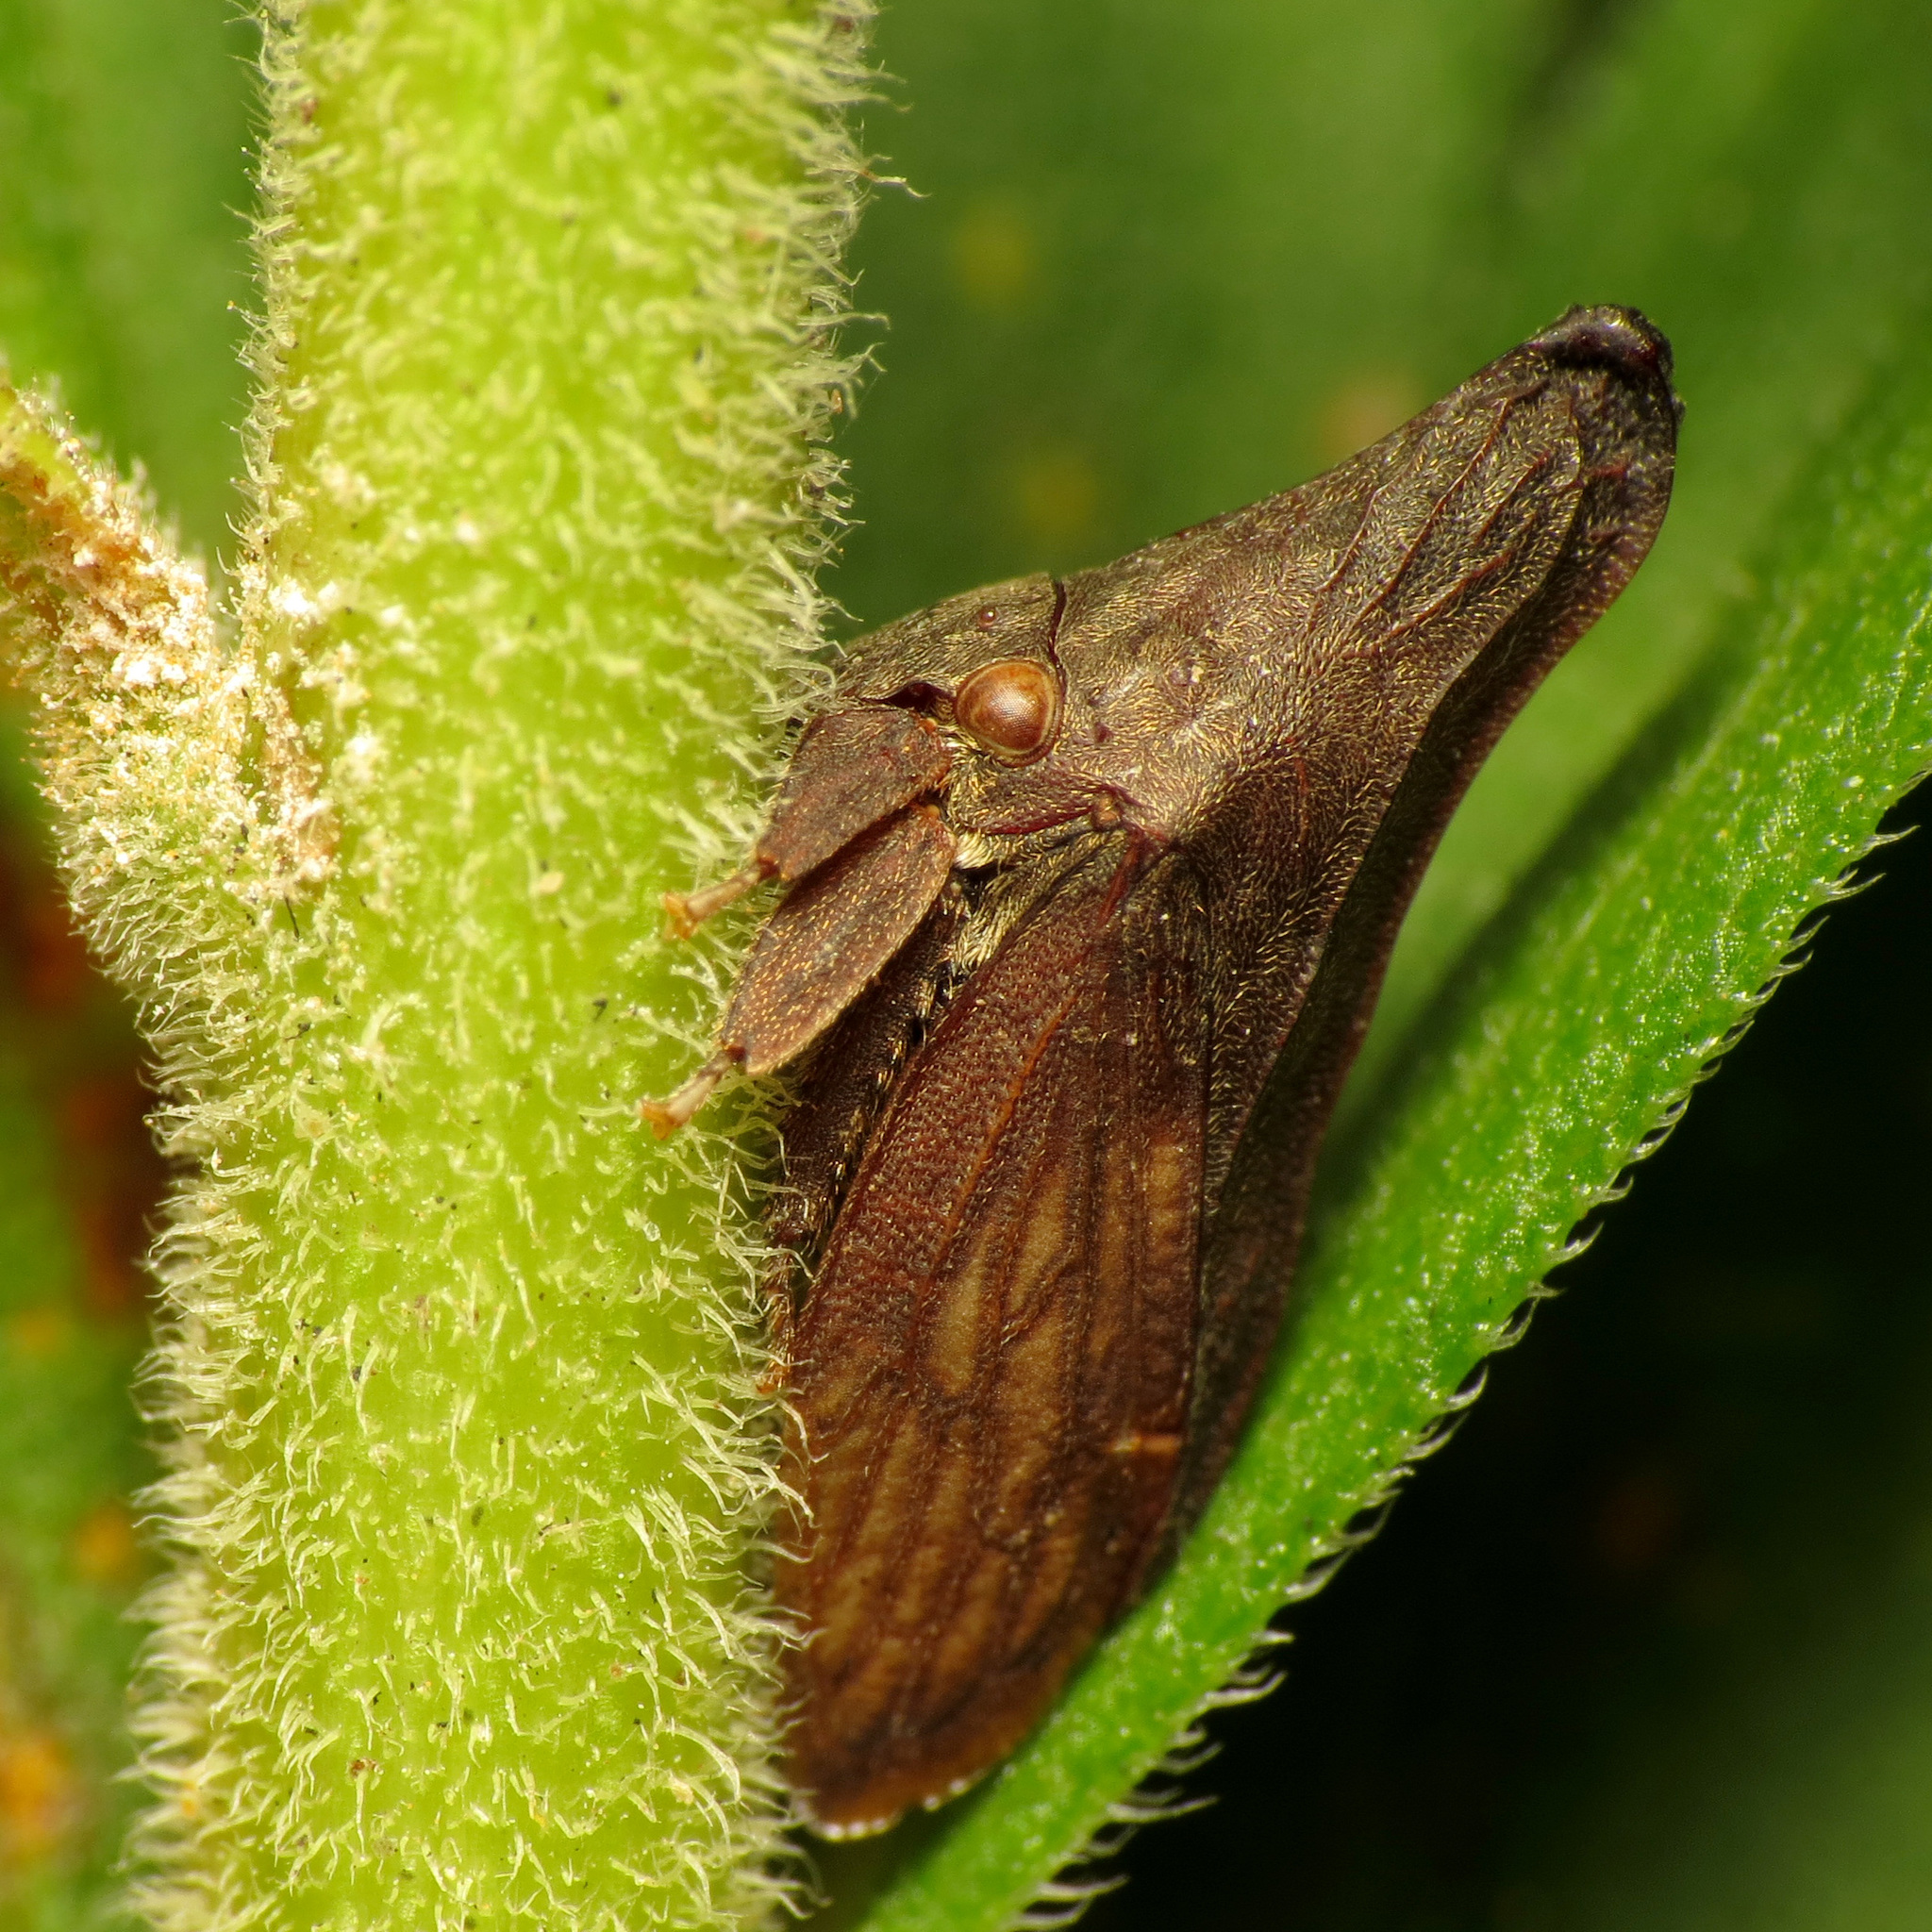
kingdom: Animalia
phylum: Arthropoda
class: Insecta
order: Hemiptera
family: Membracidae
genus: Enchenopa
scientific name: Enchenopa latipes
